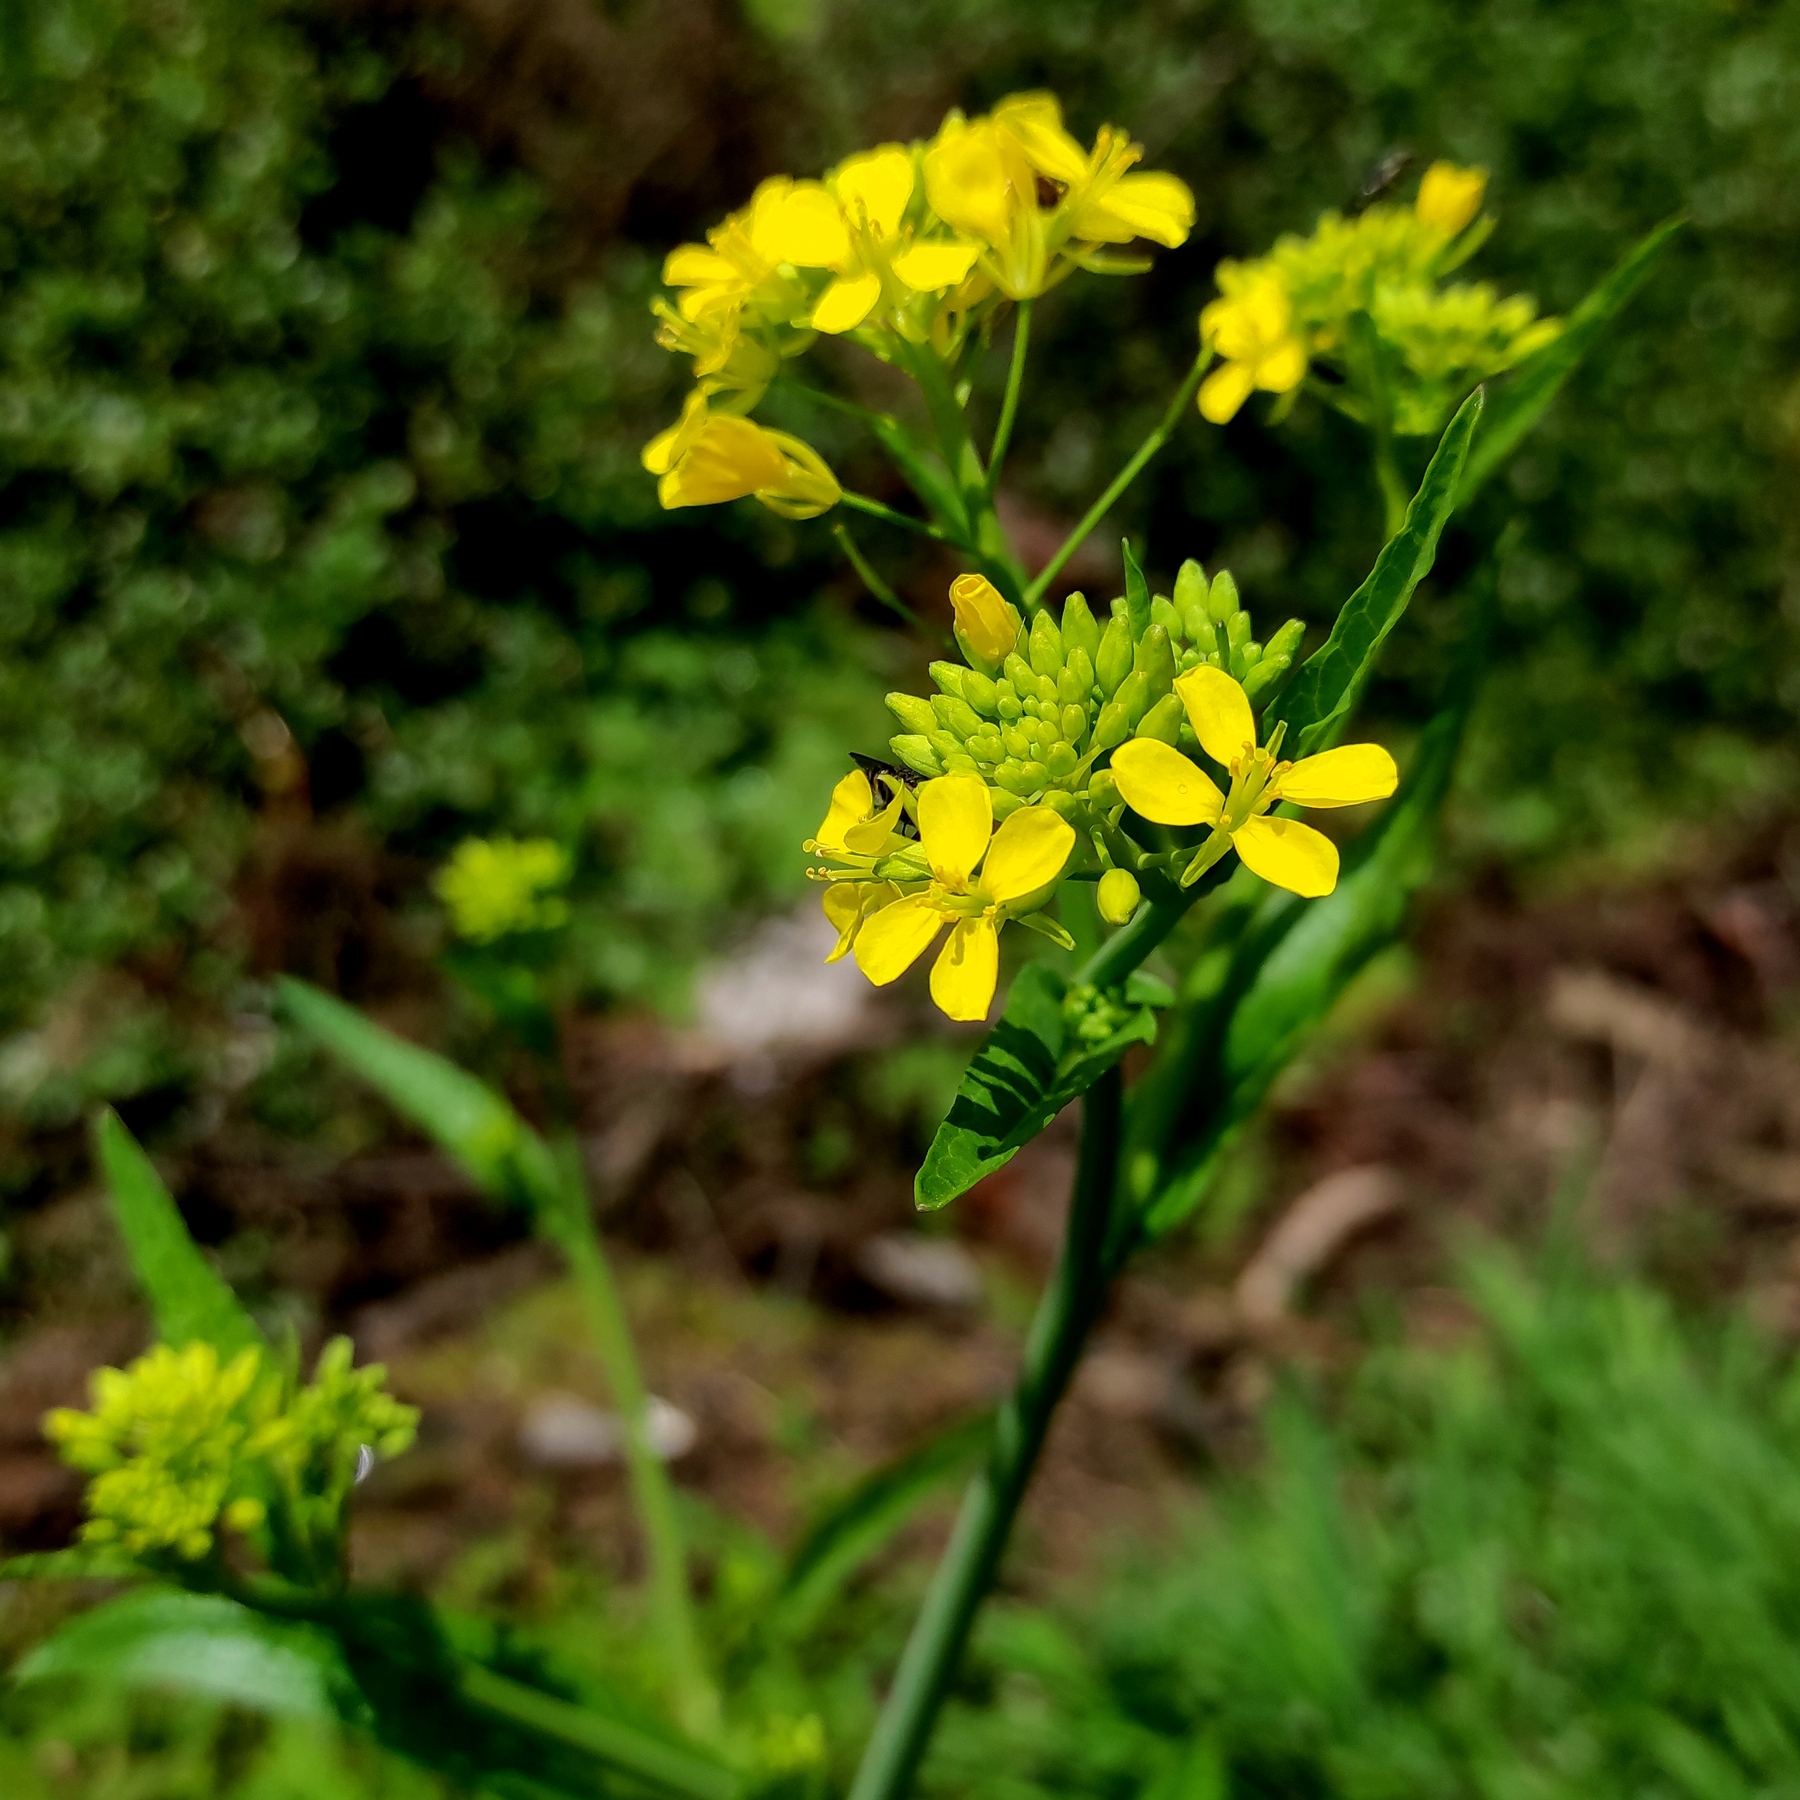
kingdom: Plantae
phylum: Tracheophyta
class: Magnoliopsida
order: Brassicales
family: Brassicaceae
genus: Brassica
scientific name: Brassica rapa
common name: Field mustard
